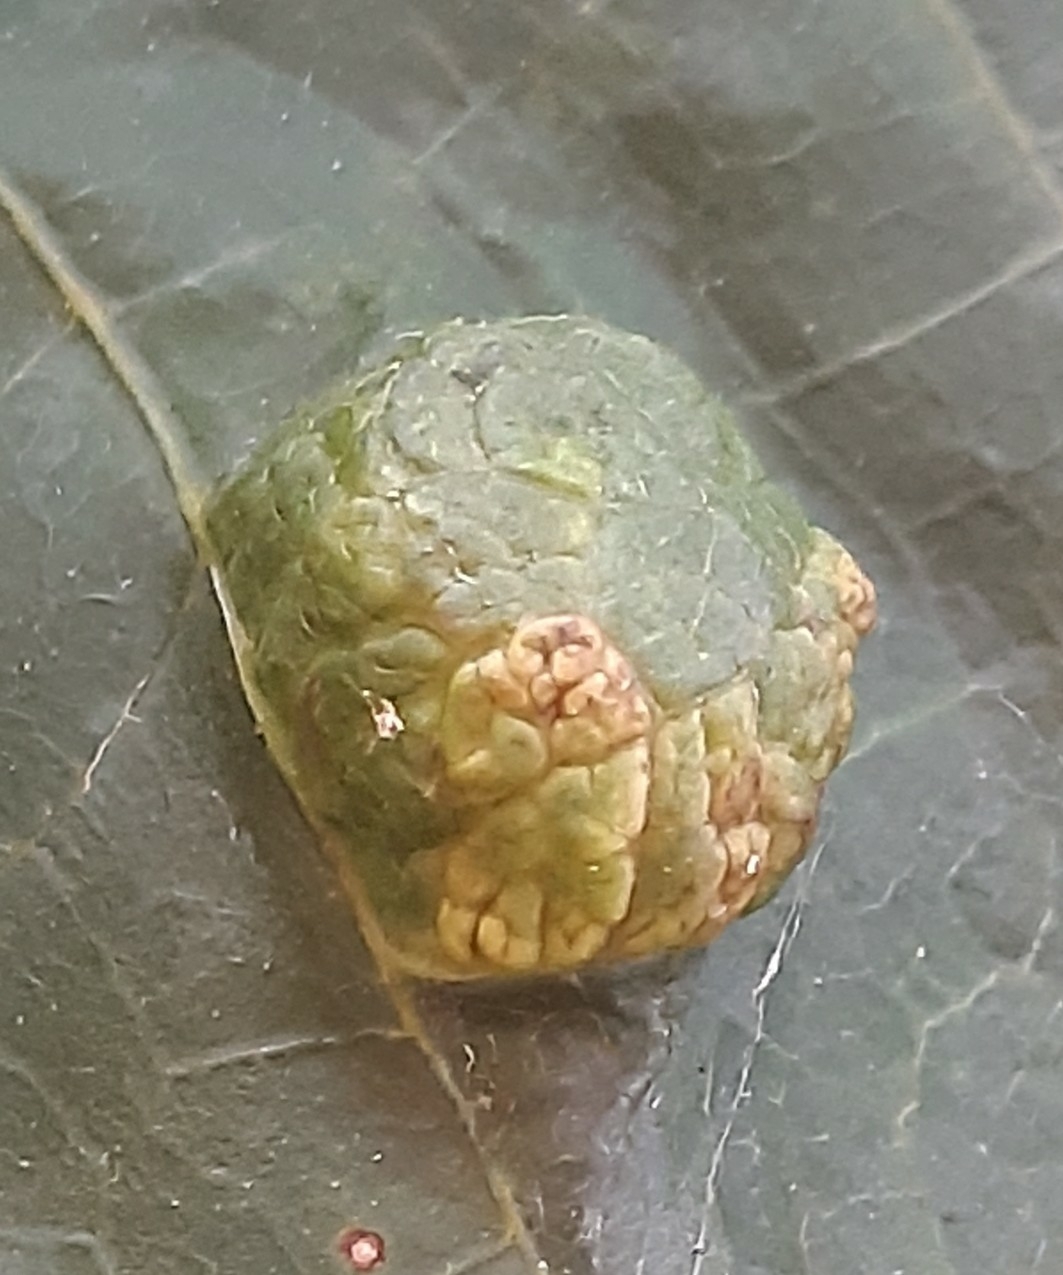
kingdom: Animalia
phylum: Arthropoda
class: Arachnida
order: Trombidiformes
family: Eriophyidae
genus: Aceria
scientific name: Aceria erinea
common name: Persian walnut erineum mite
